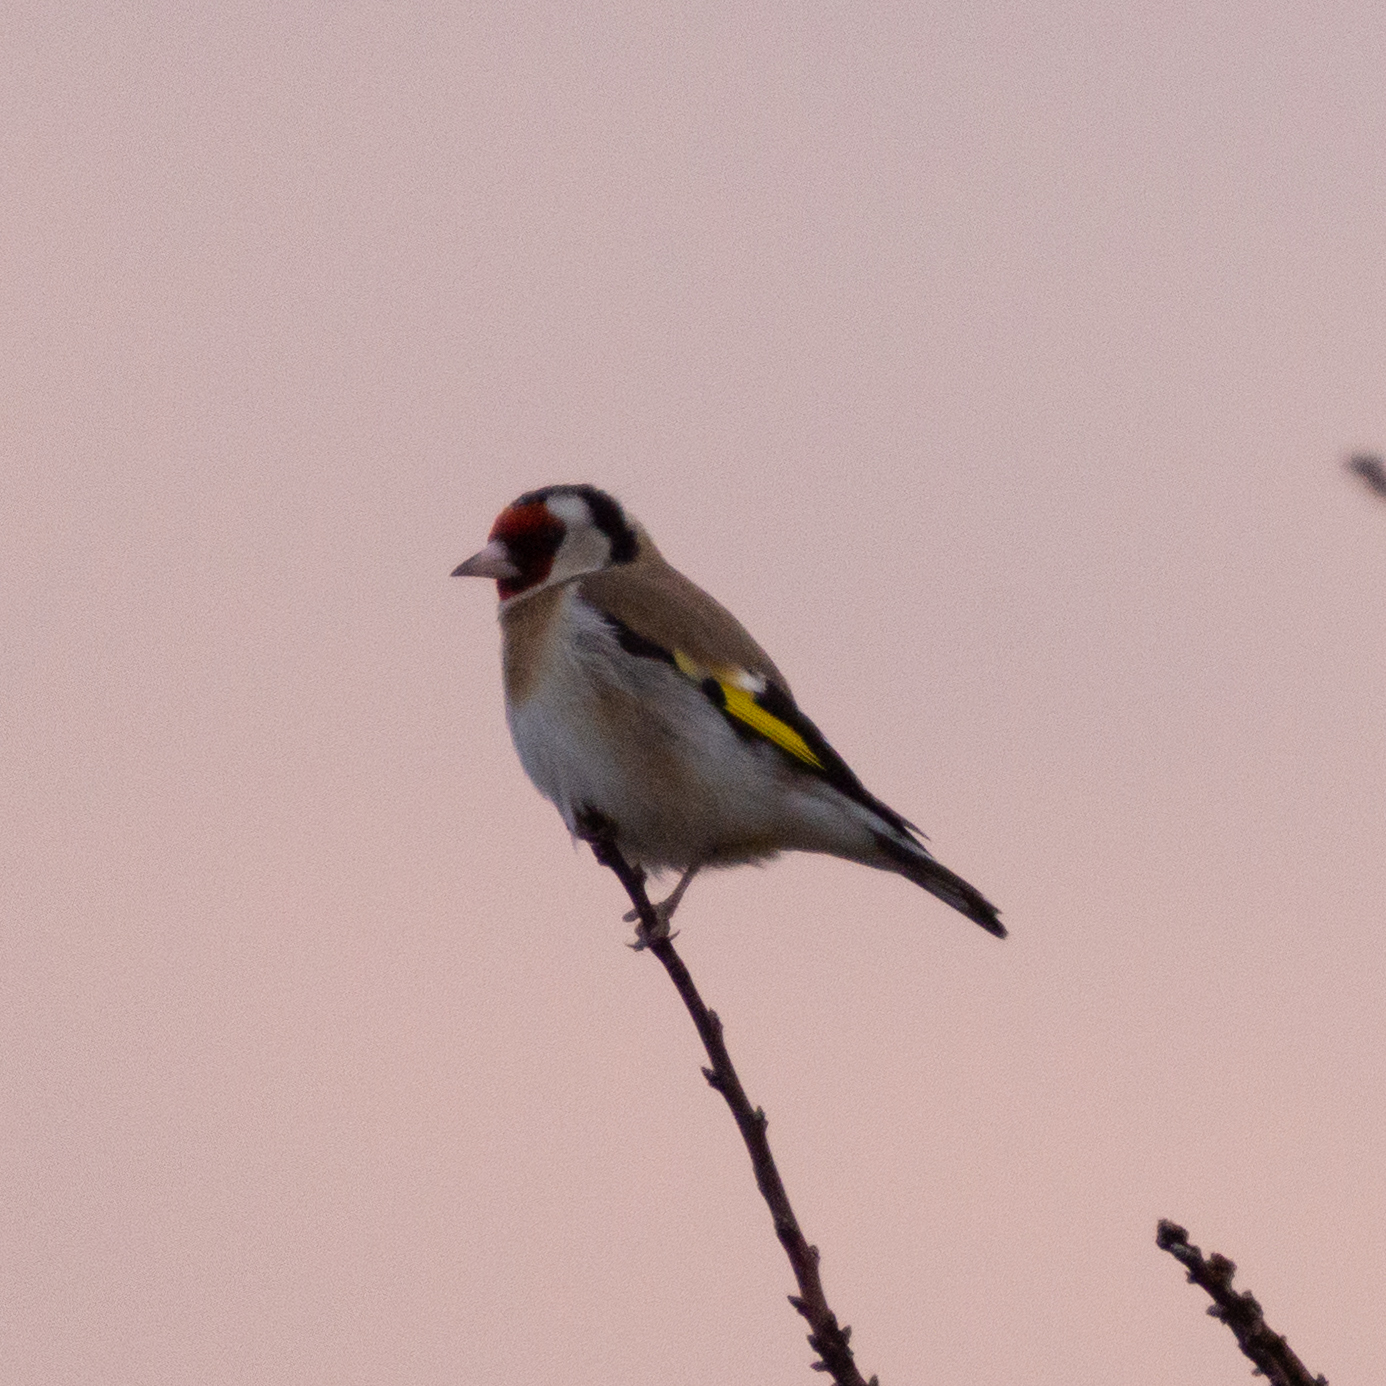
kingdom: Animalia
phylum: Chordata
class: Aves
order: Passeriformes
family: Fringillidae
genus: Carduelis
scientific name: Carduelis carduelis
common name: European goldfinch
